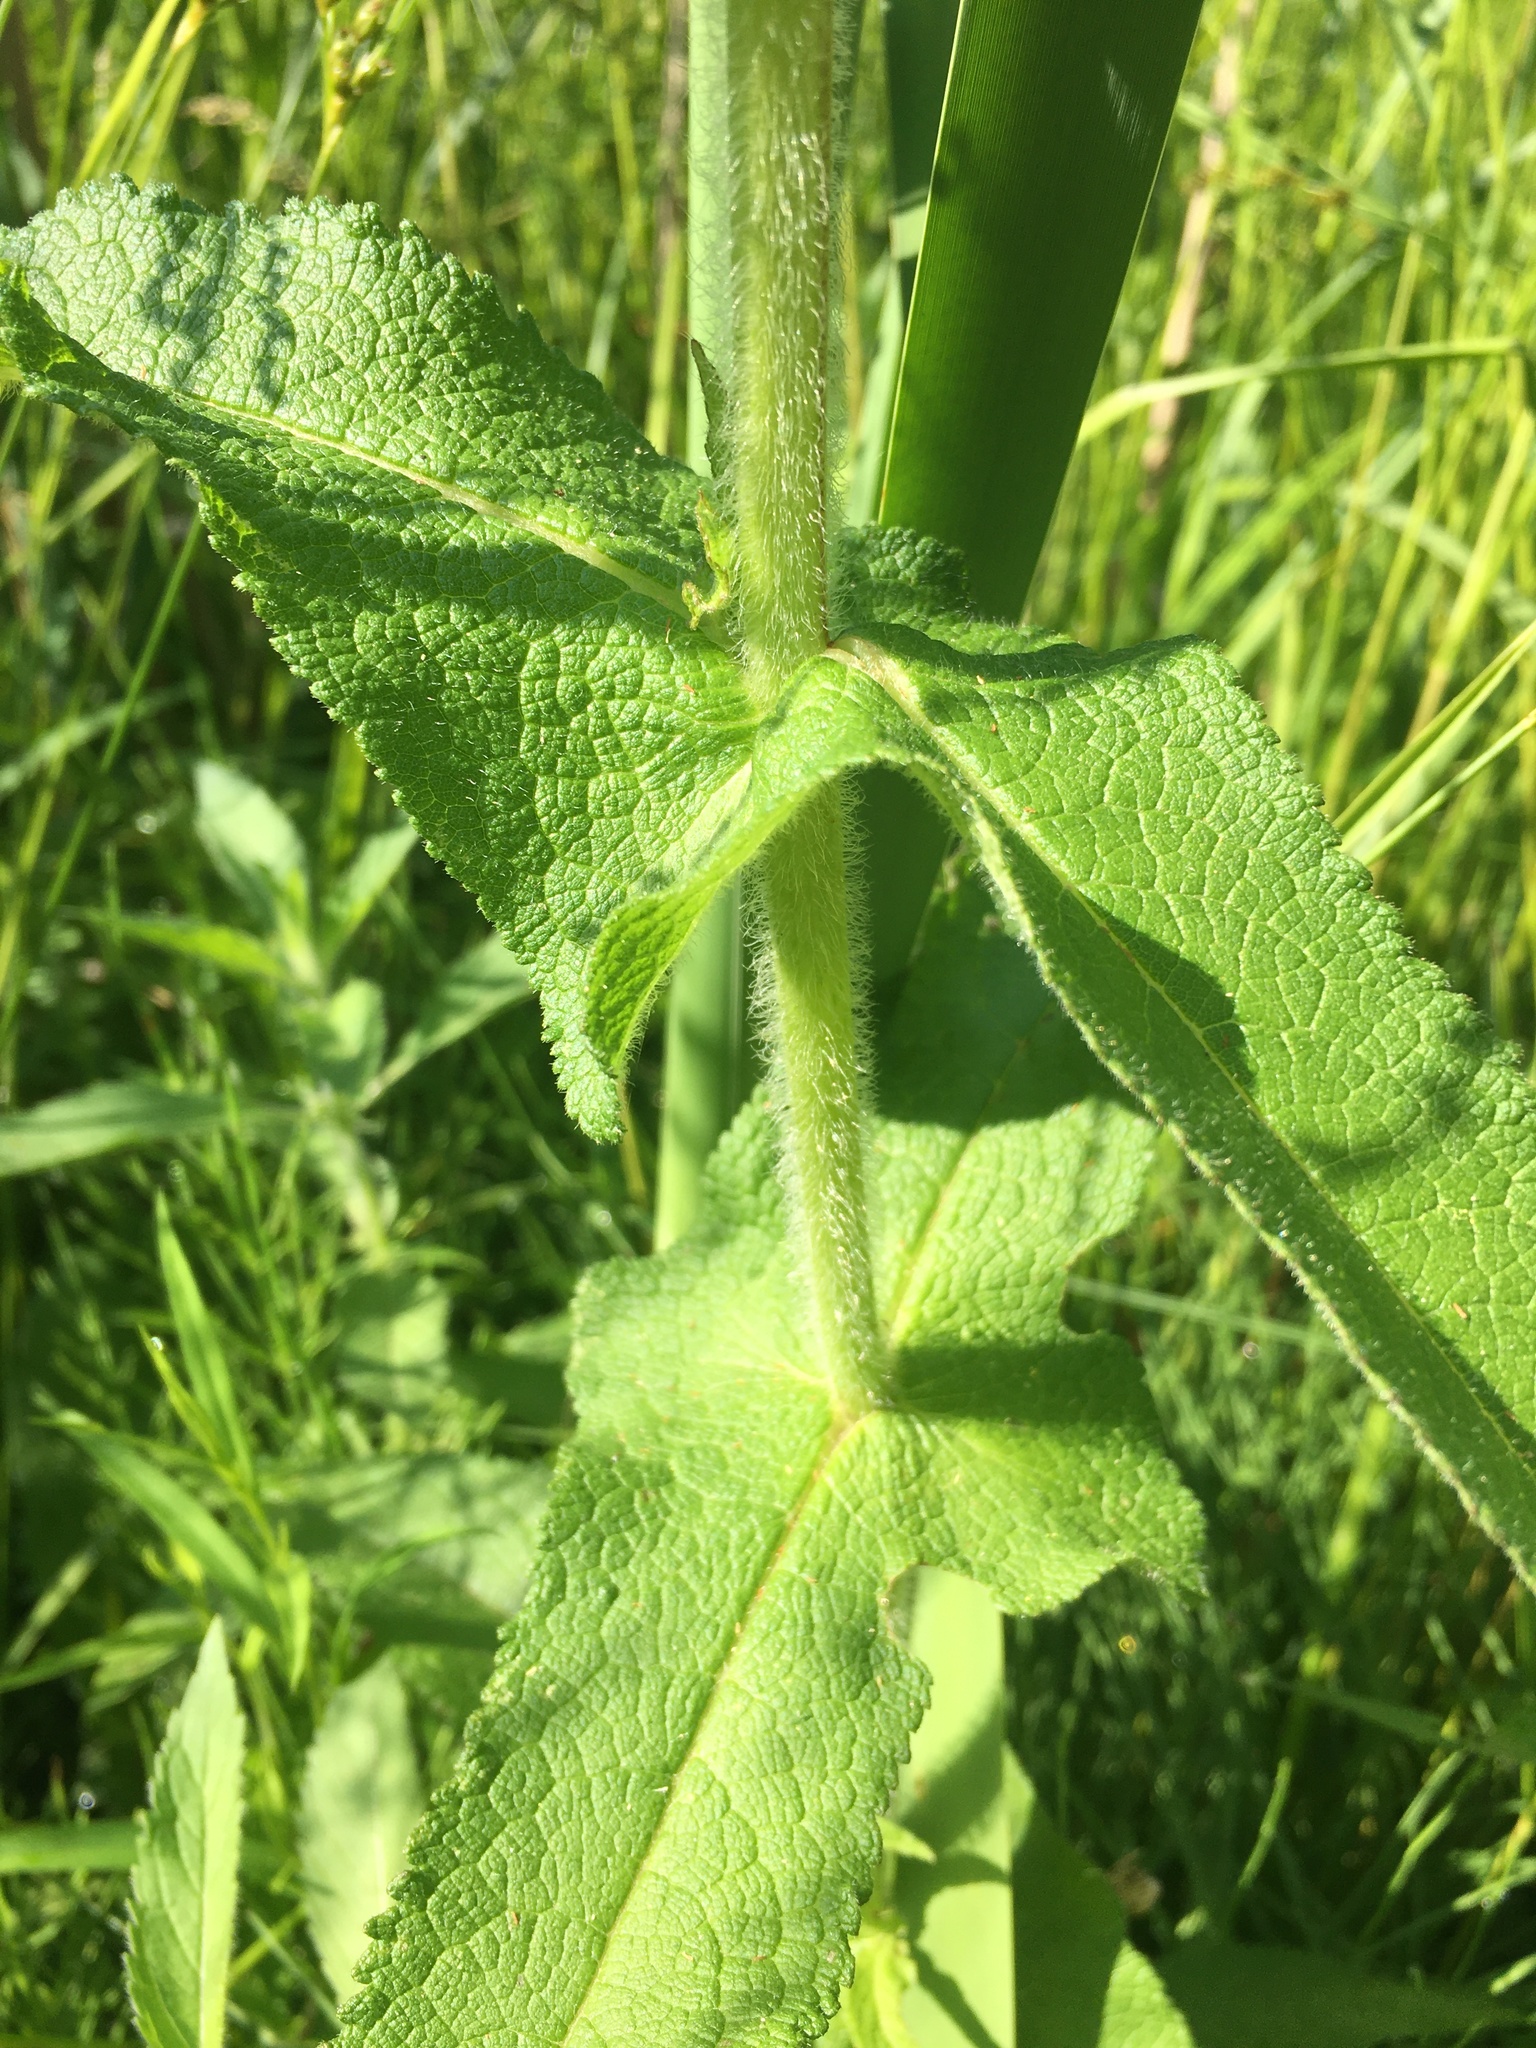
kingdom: Plantae
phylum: Tracheophyta
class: Magnoliopsida
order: Asterales
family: Asteraceae
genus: Eupatorium
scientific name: Eupatorium perfoliatum
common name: Boneset
